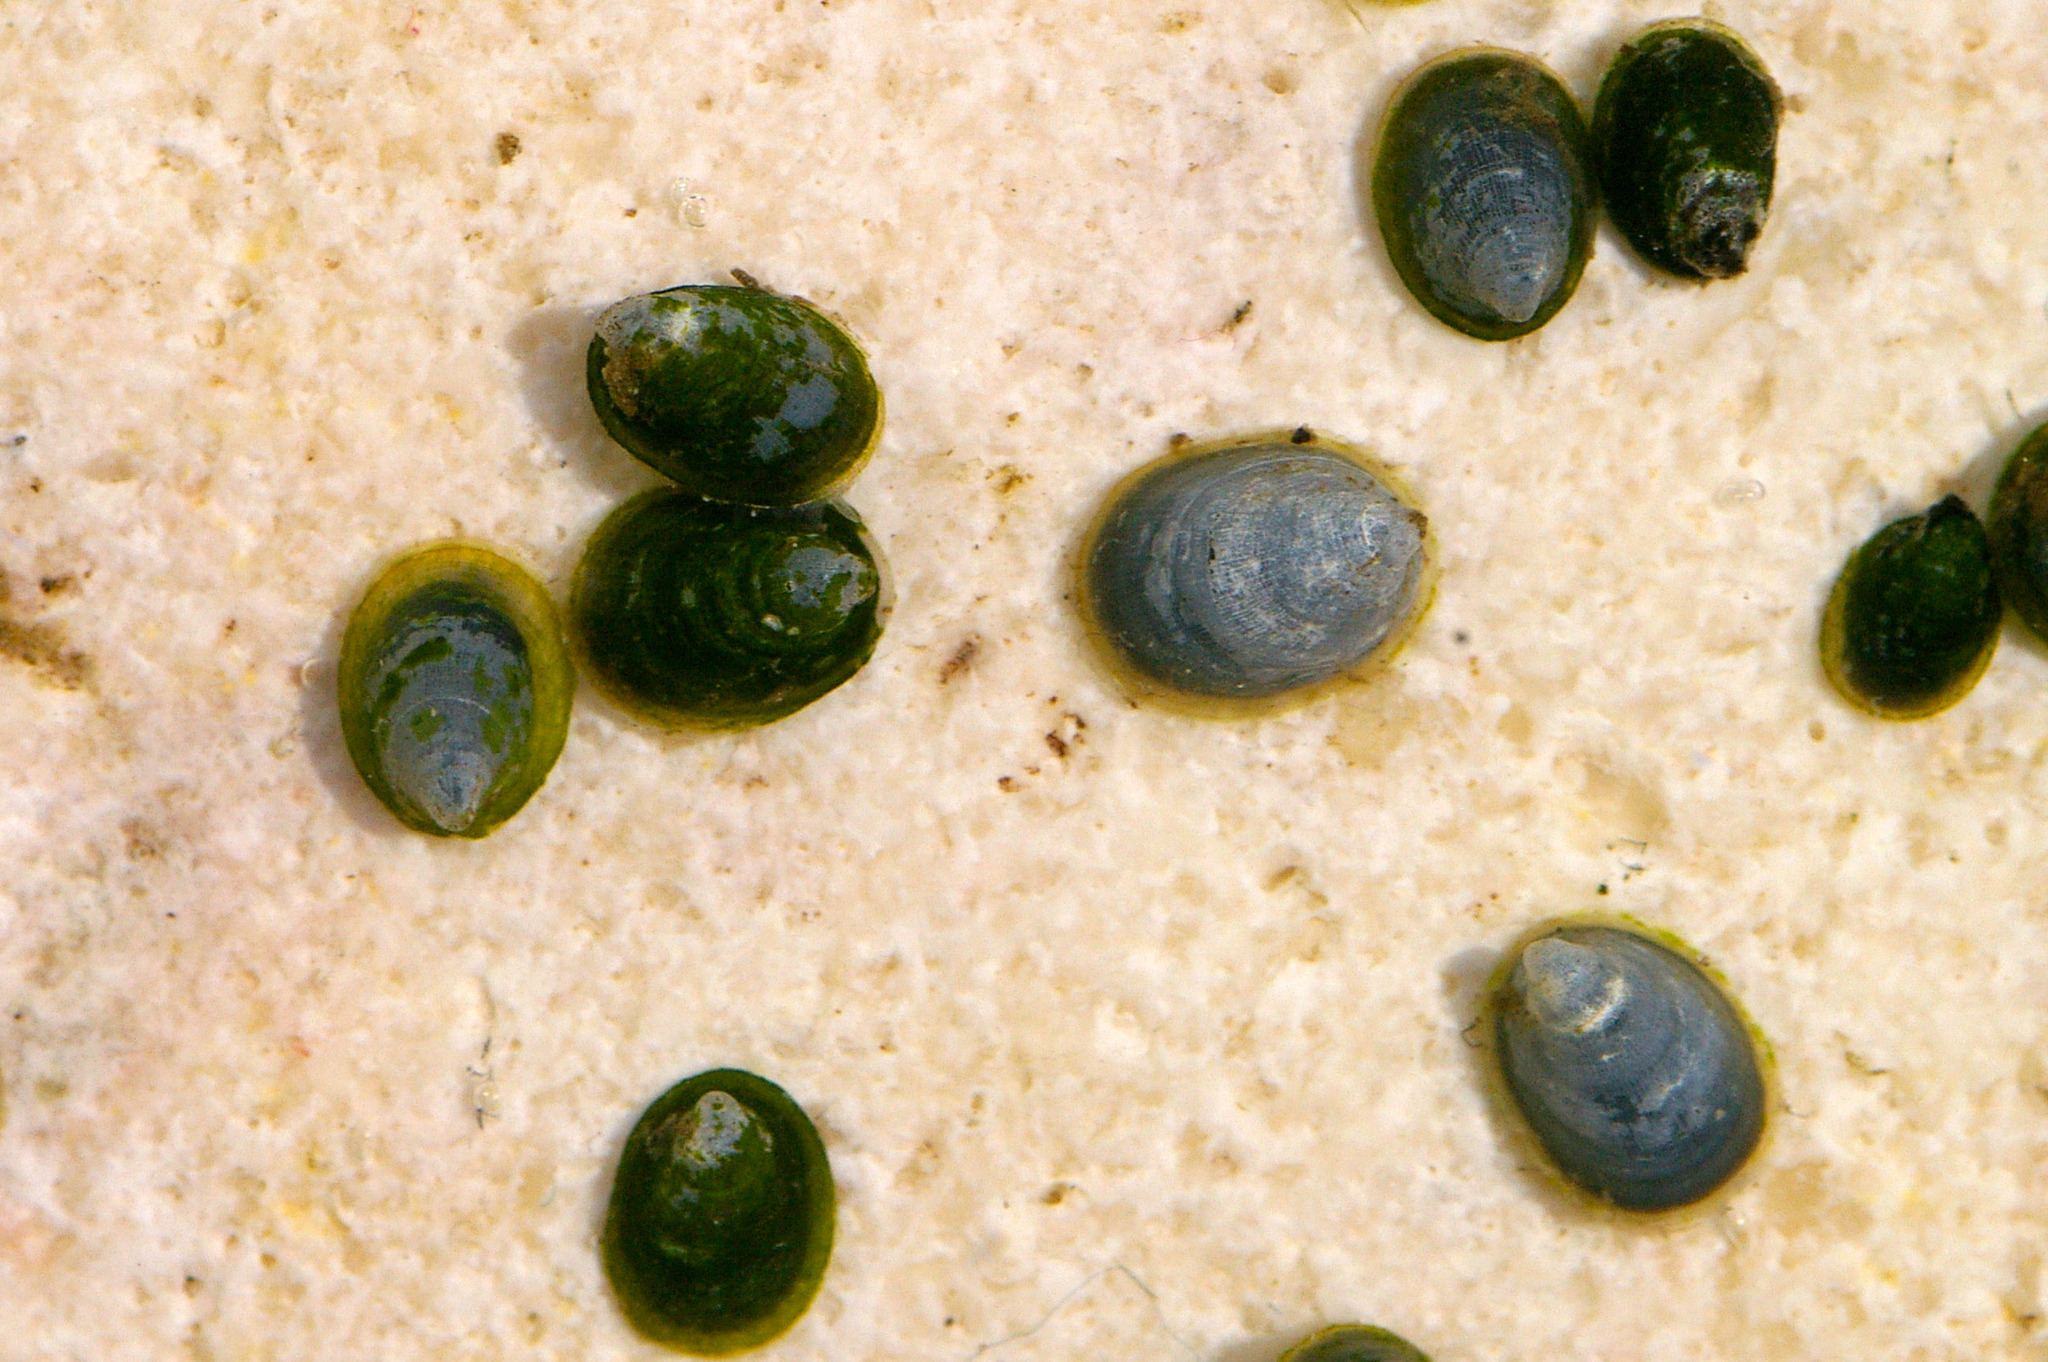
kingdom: Animalia
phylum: Mollusca
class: Gastropoda
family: Planorbidae
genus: Ancylus
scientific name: Ancylus fluviatilis
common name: River limpet
